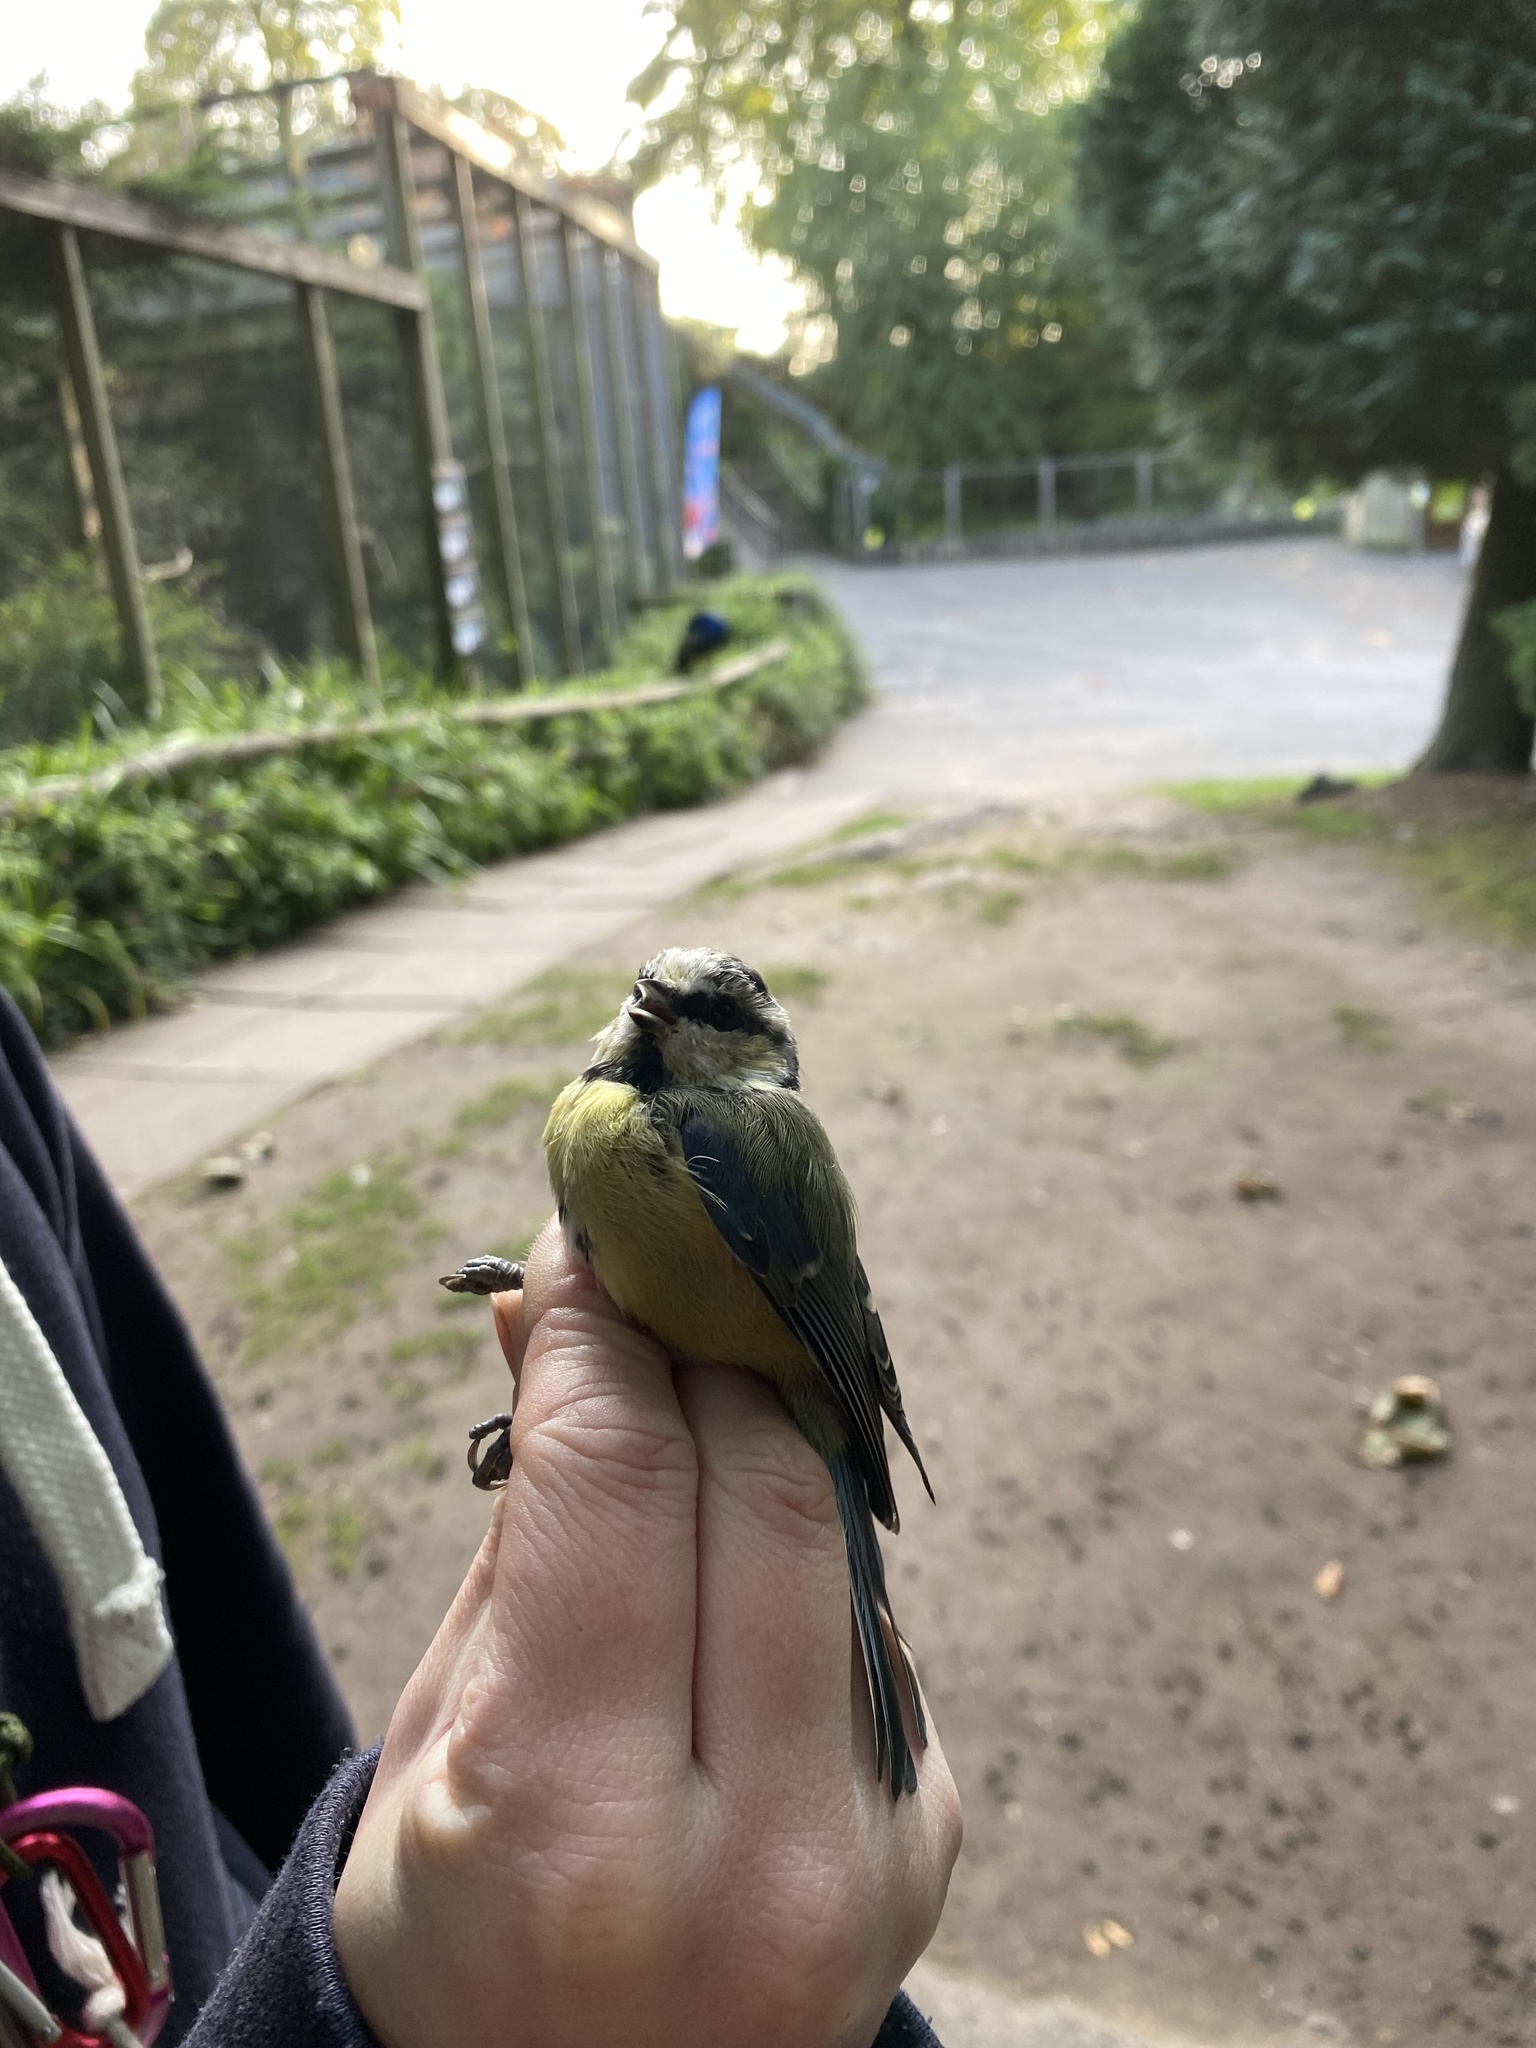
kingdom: Animalia
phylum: Chordata
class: Aves
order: Passeriformes
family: Paridae
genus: Cyanistes
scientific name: Cyanistes caeruleus
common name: Eurasian blue tit
